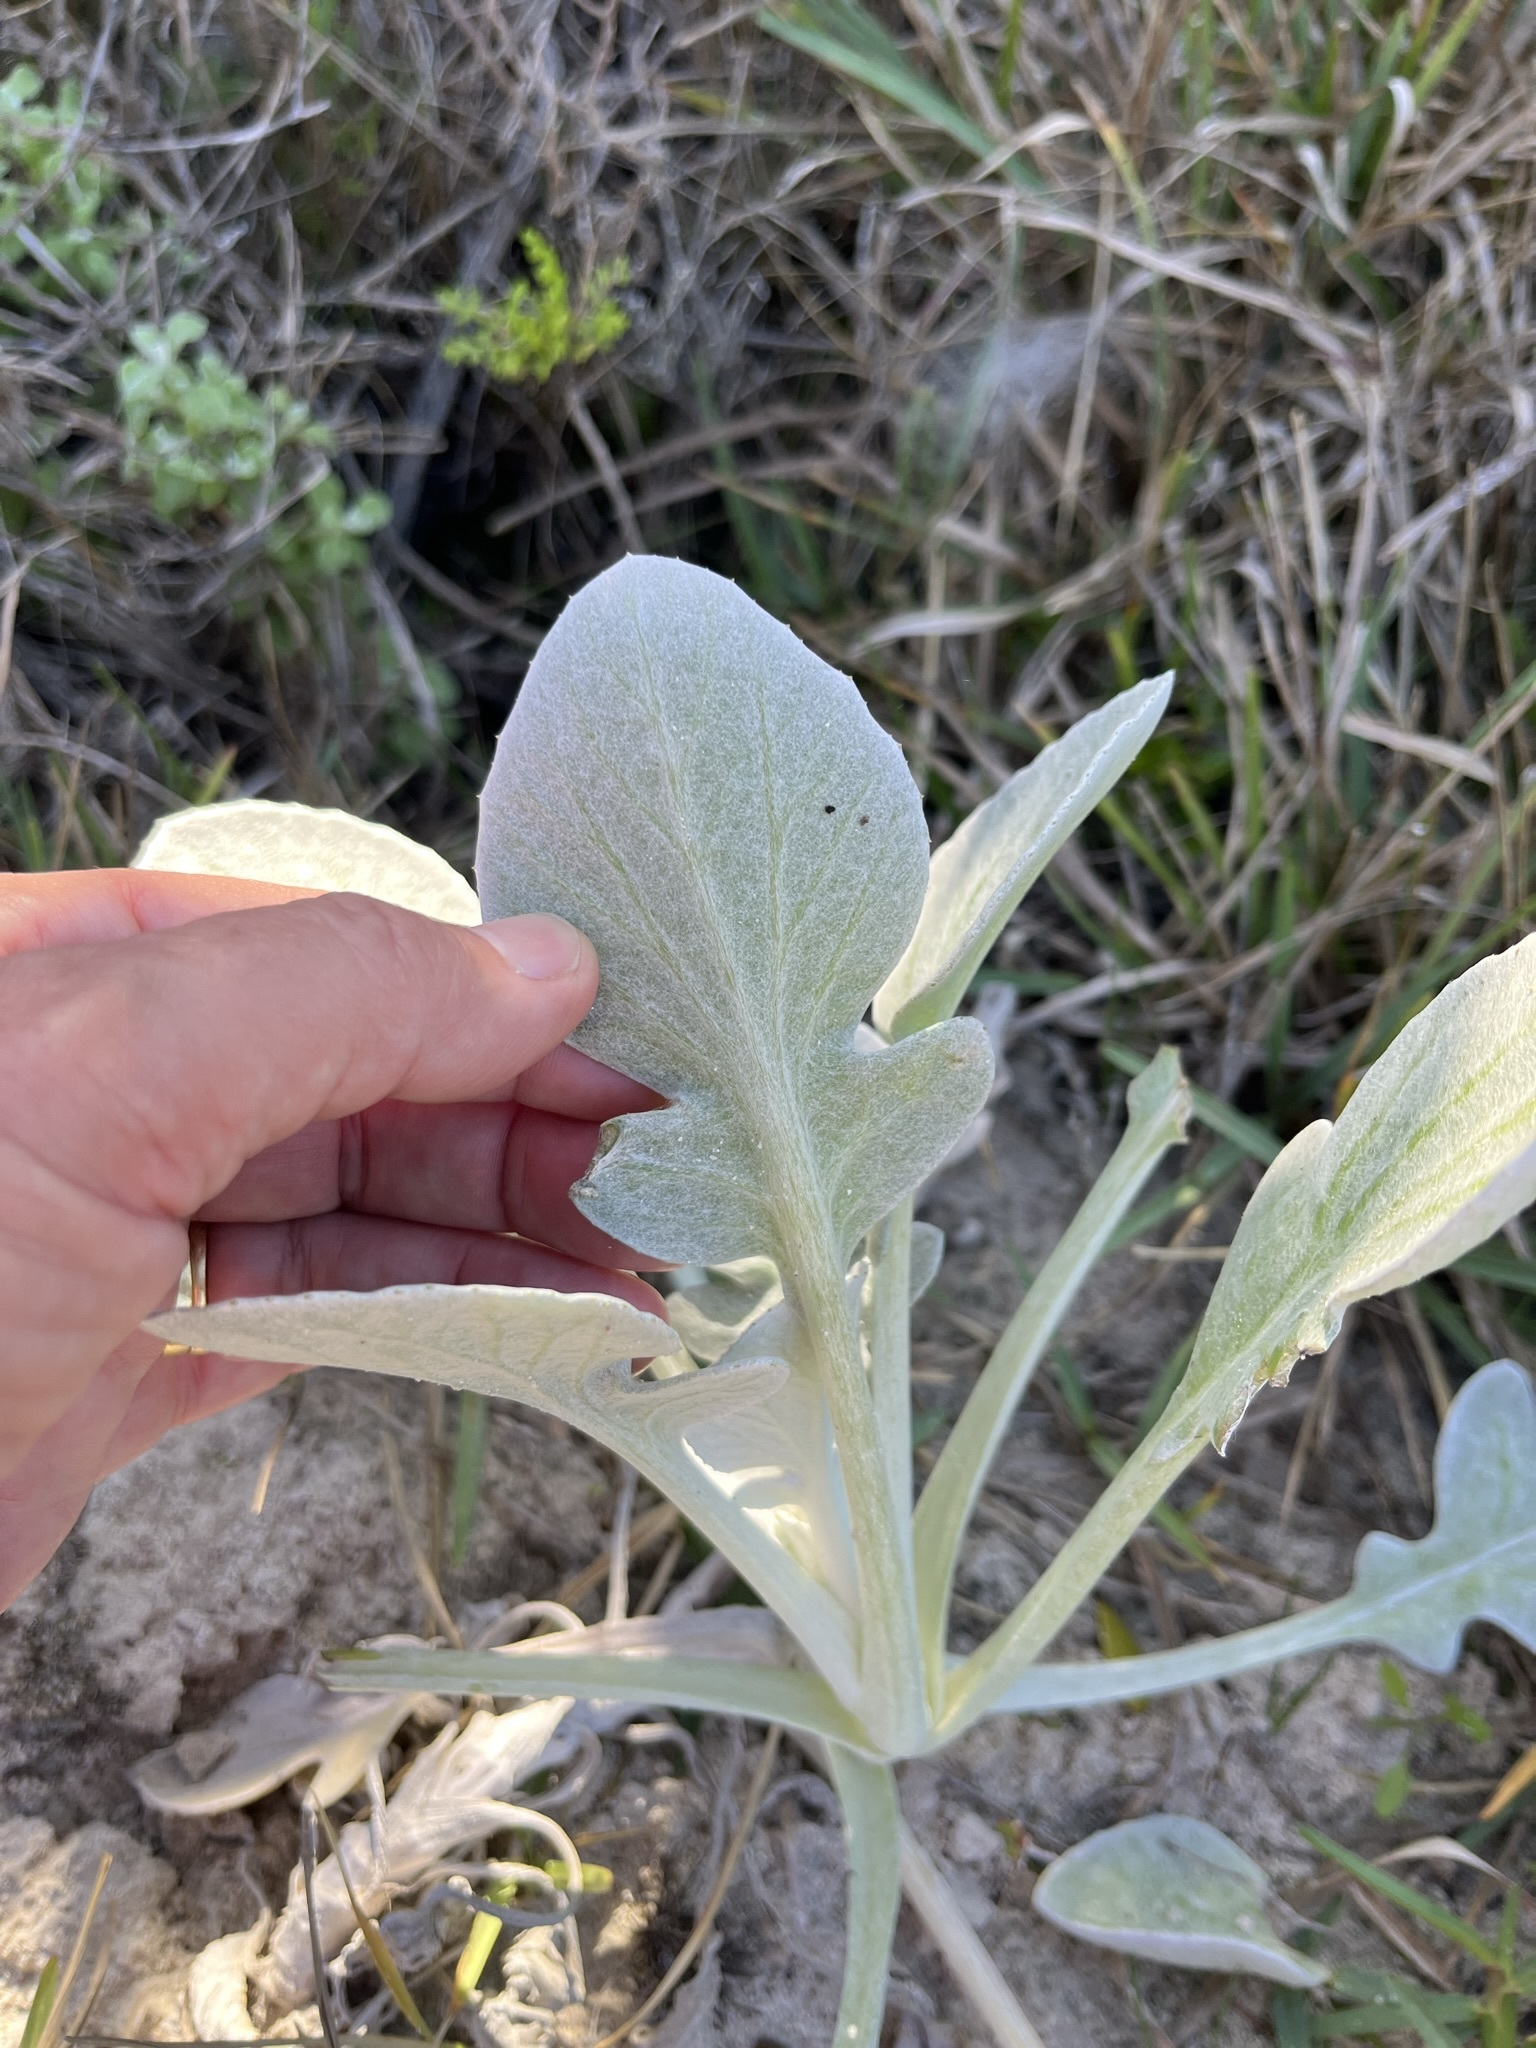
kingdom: Plantae
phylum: Tracheophyta
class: Magnoliopsida
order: Asterales
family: Asteraceae
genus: Arctotheca
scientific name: Arctotheca populifolia
